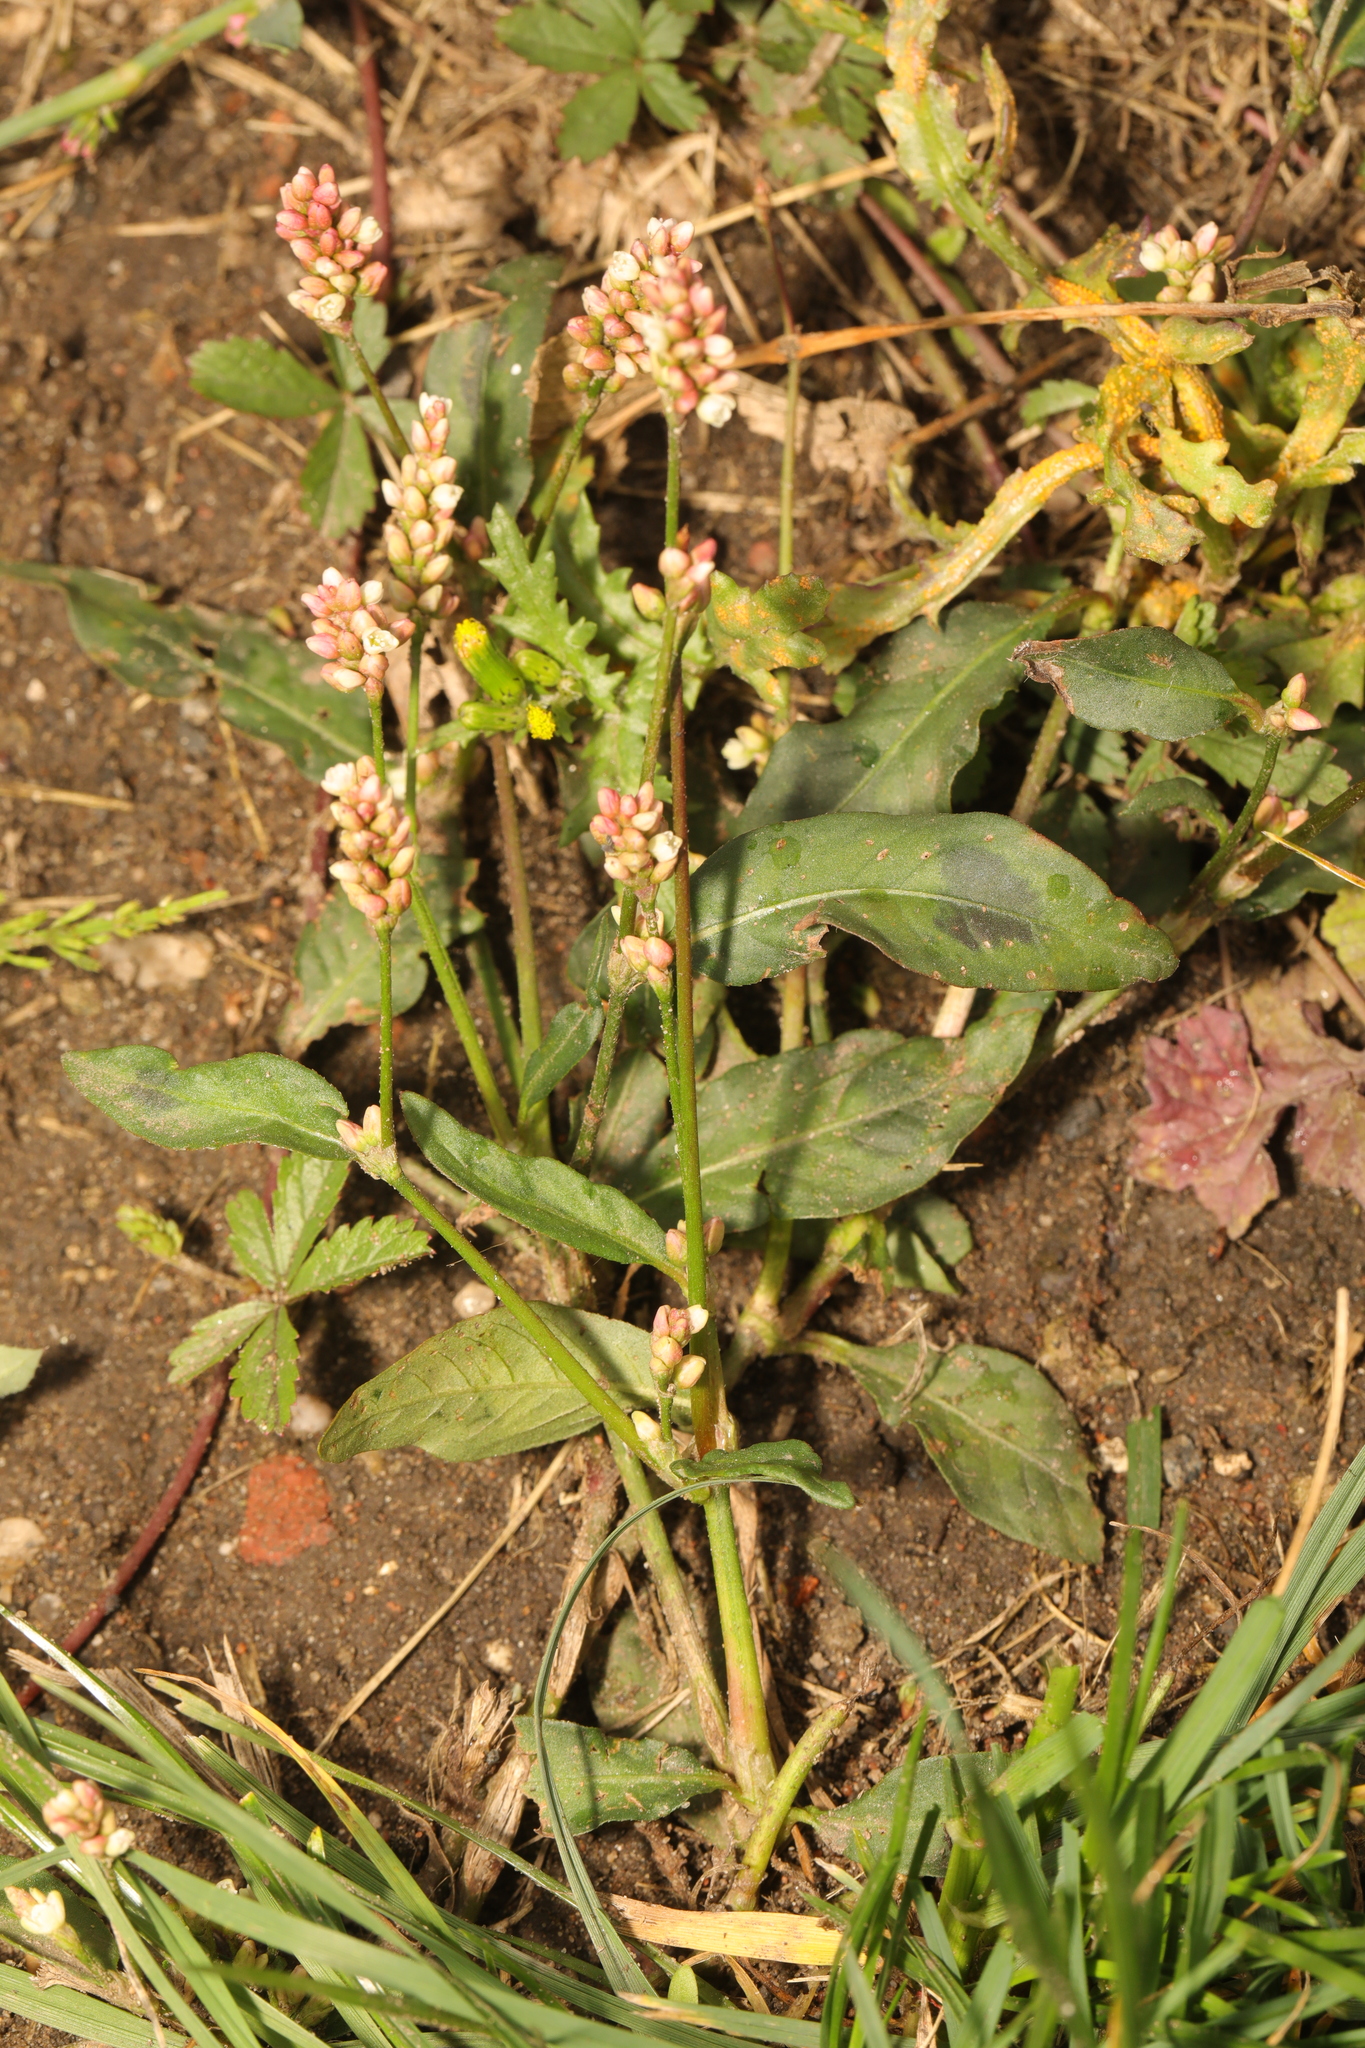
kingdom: Plantae
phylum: Tracheophyta
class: Magnoliopsida
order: Caryophyllales
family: Polygonaceae
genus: Persicaria
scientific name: Persicaria maculosa
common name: Redshank
